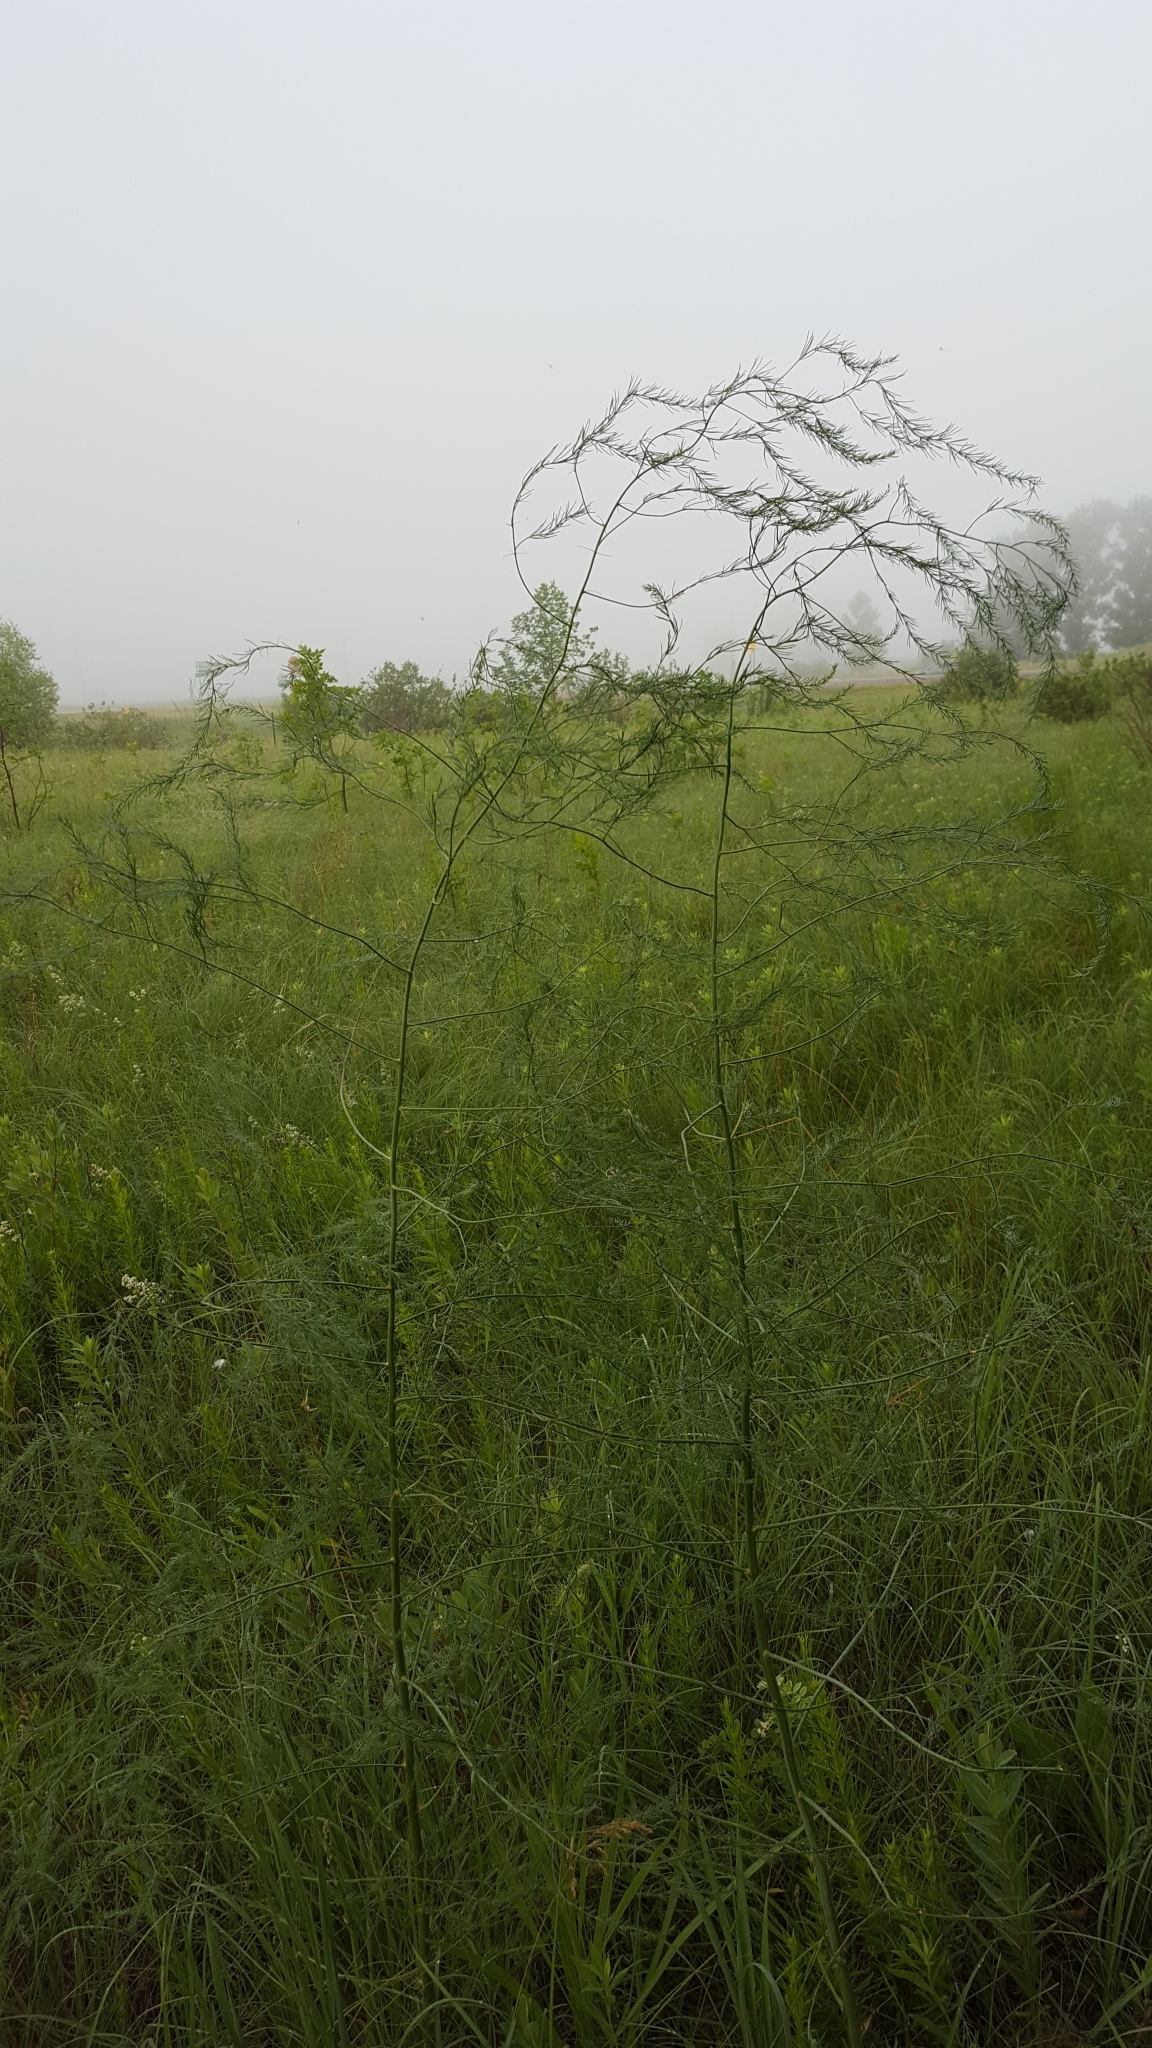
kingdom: Plantae
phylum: Tracheophyta
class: Liliopsida
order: Asparagales
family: Asparagaceae
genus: Asparagus
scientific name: Asparagus officinalis
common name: Garden asparagus
